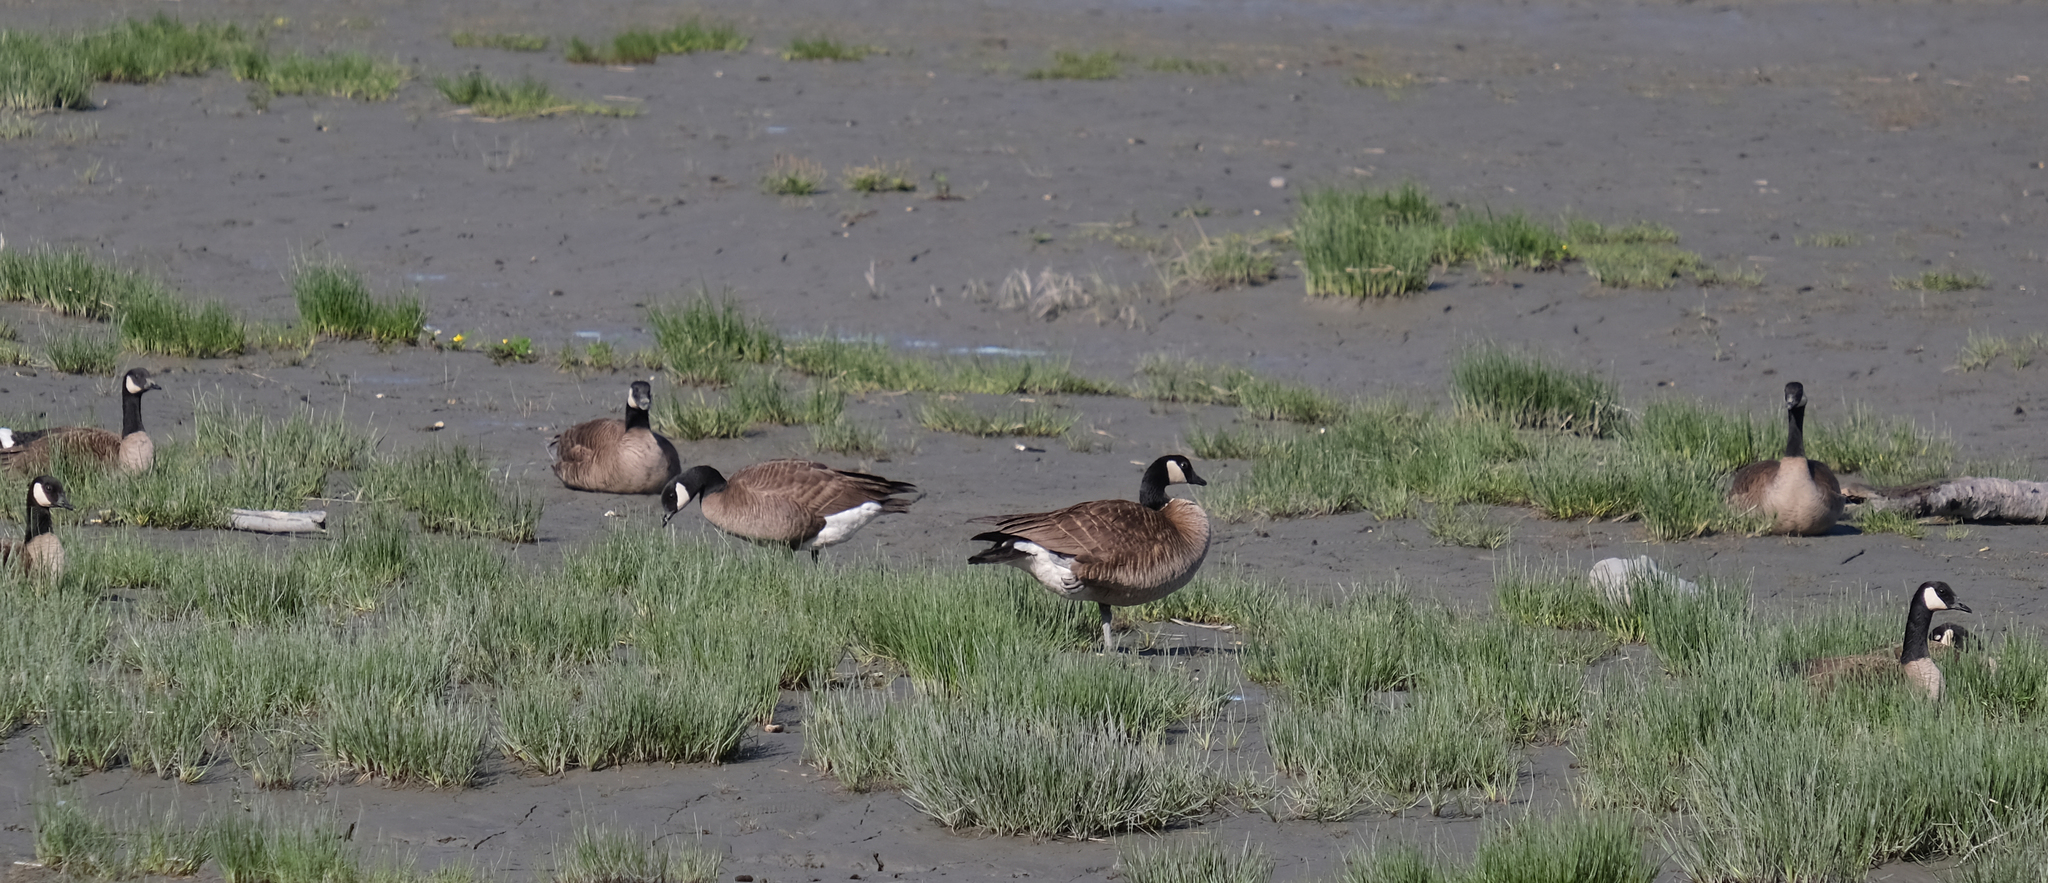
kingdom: Animalia
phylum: Chordata
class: Aves
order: Anseriformes
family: Anatidae
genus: Branta
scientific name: Branta canadensis
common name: Canada goose
